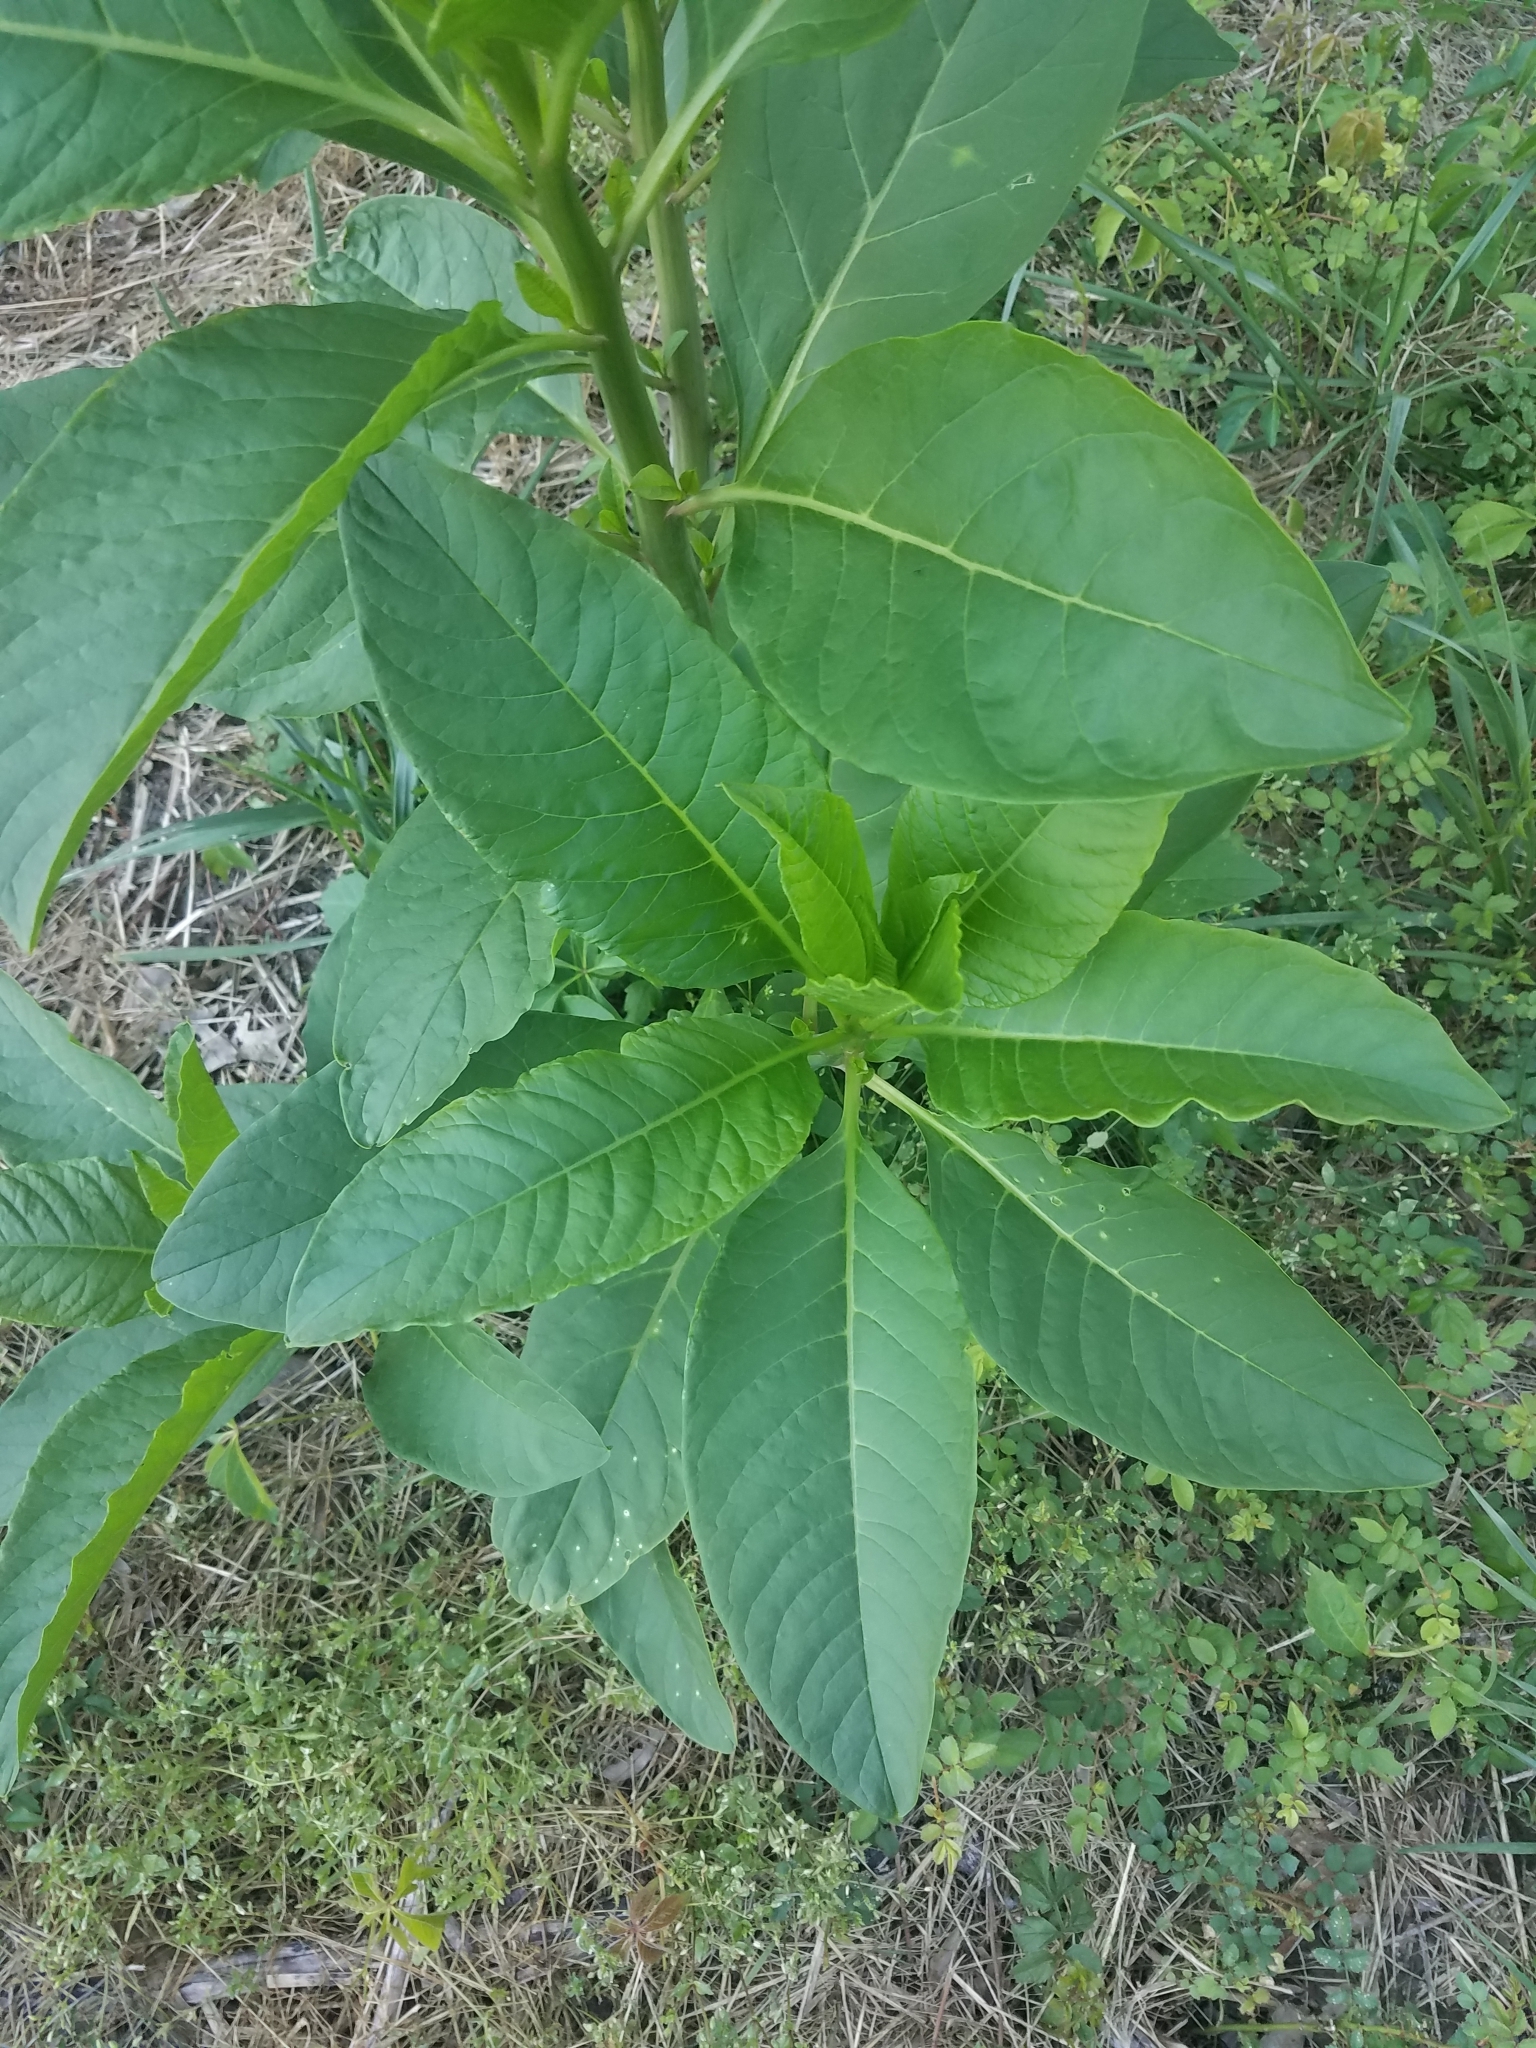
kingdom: Plantae
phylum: Tracheophyta
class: Magnoliopsida
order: Caryophyllales
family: Phytolaccaceae
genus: Phytolacca
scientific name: Phytolacca americana
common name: American pokeweed
